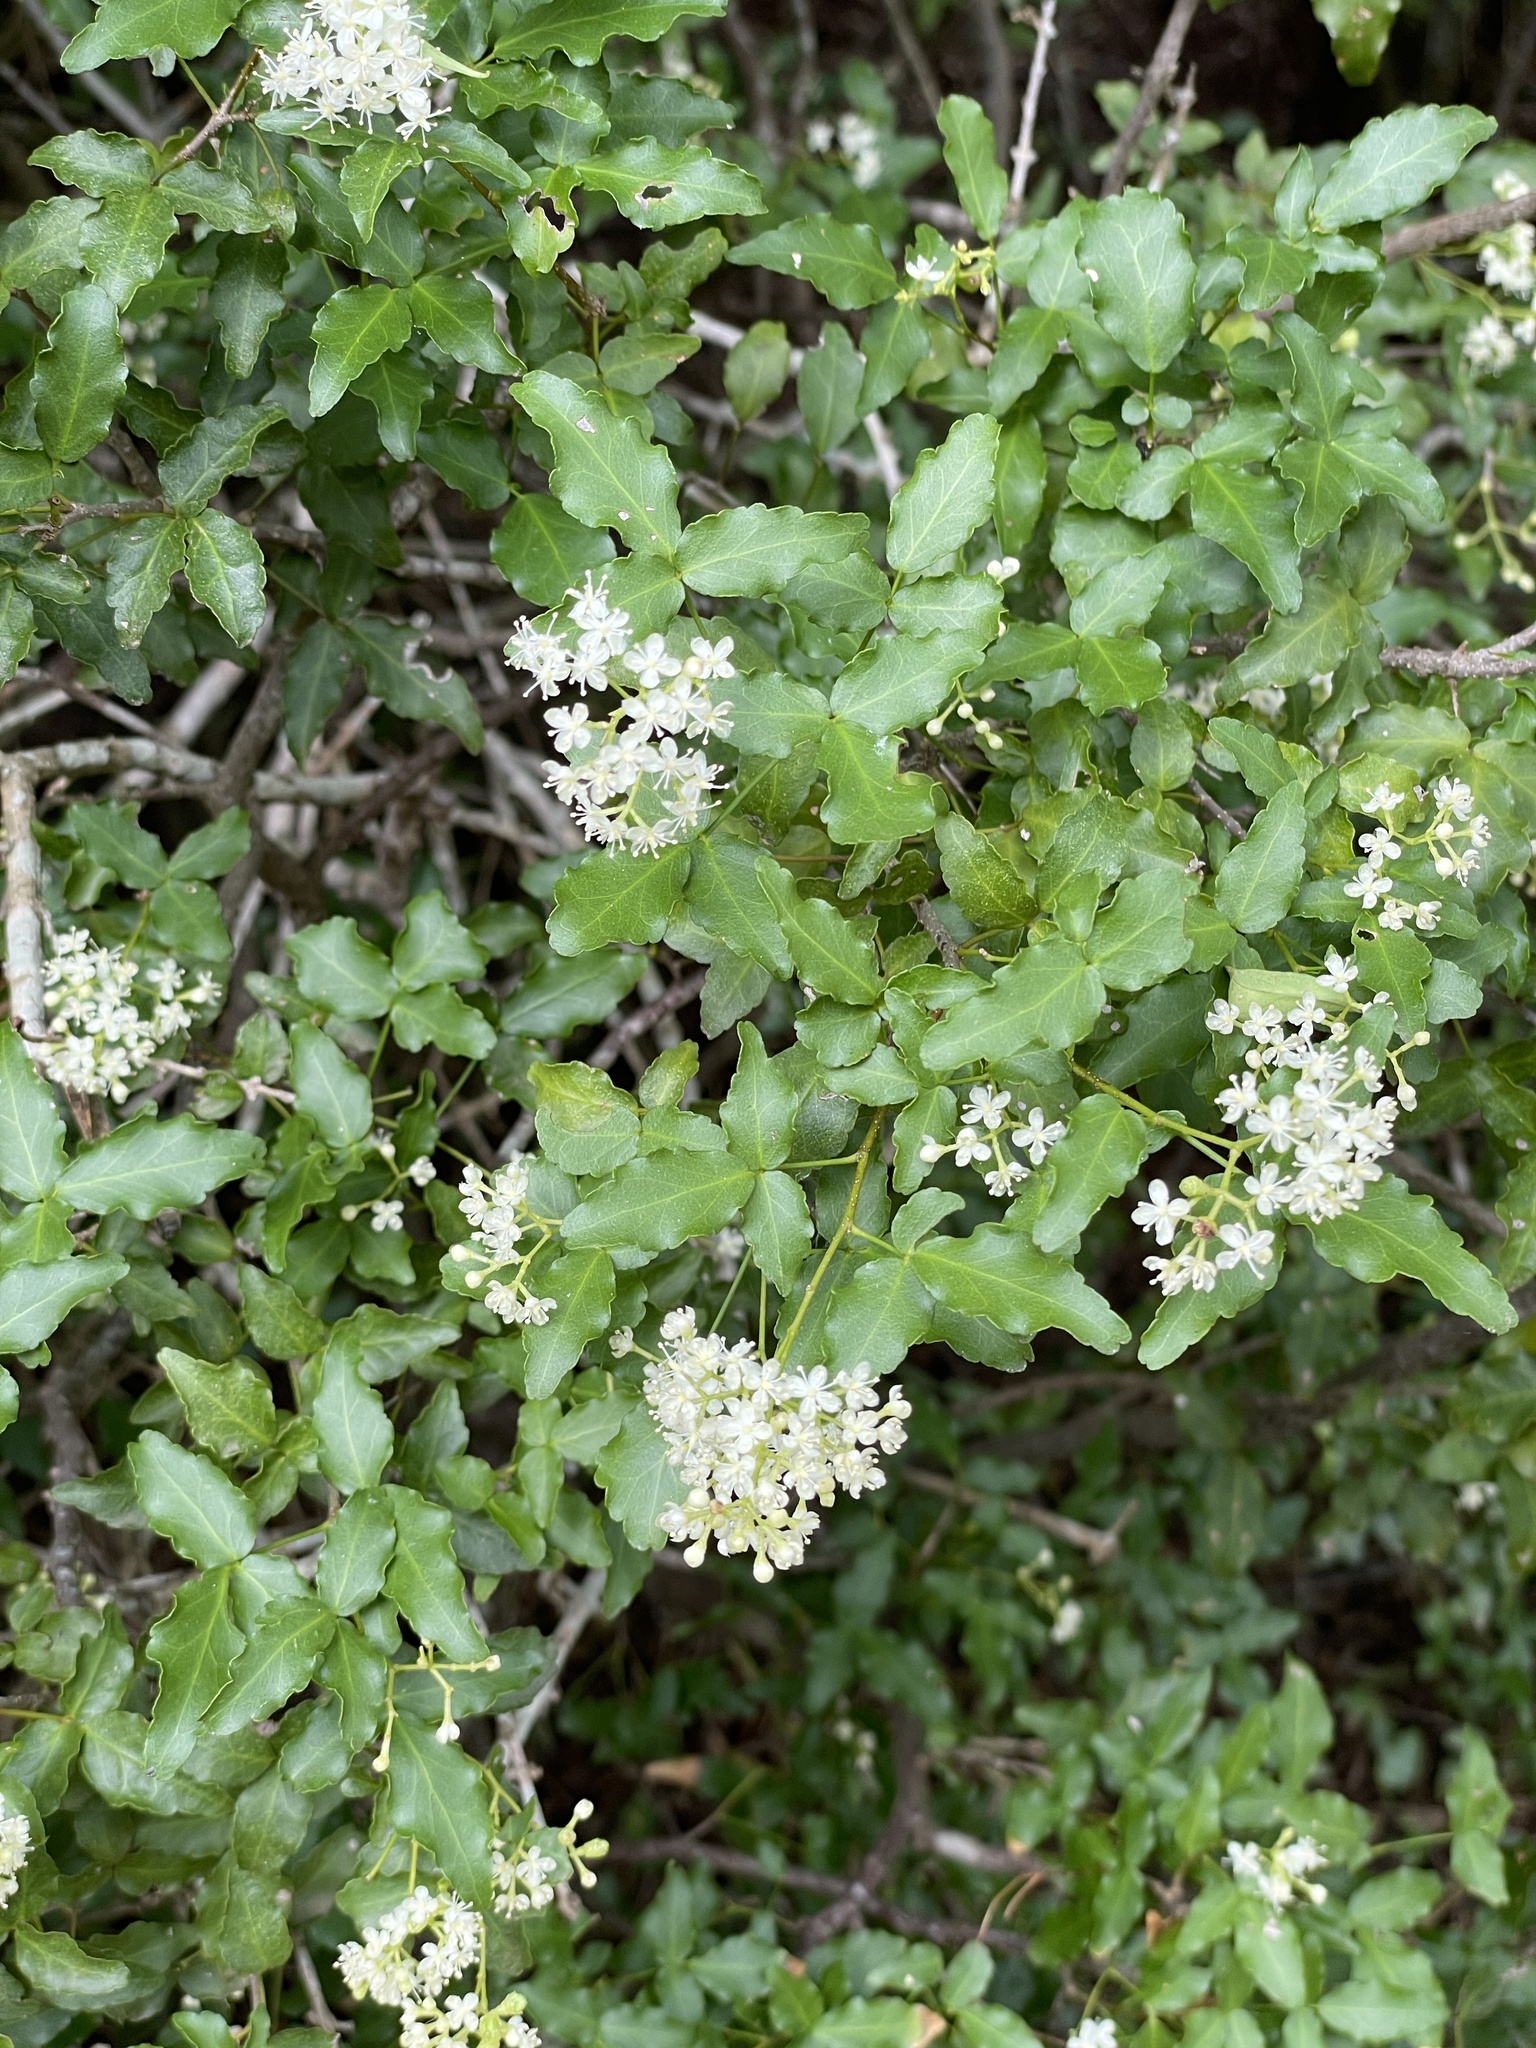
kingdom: Plantae
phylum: Tracheophyta
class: Magnoliopsida
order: Sapindales
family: Rutaceae
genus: Amyris
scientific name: Amyris texana
